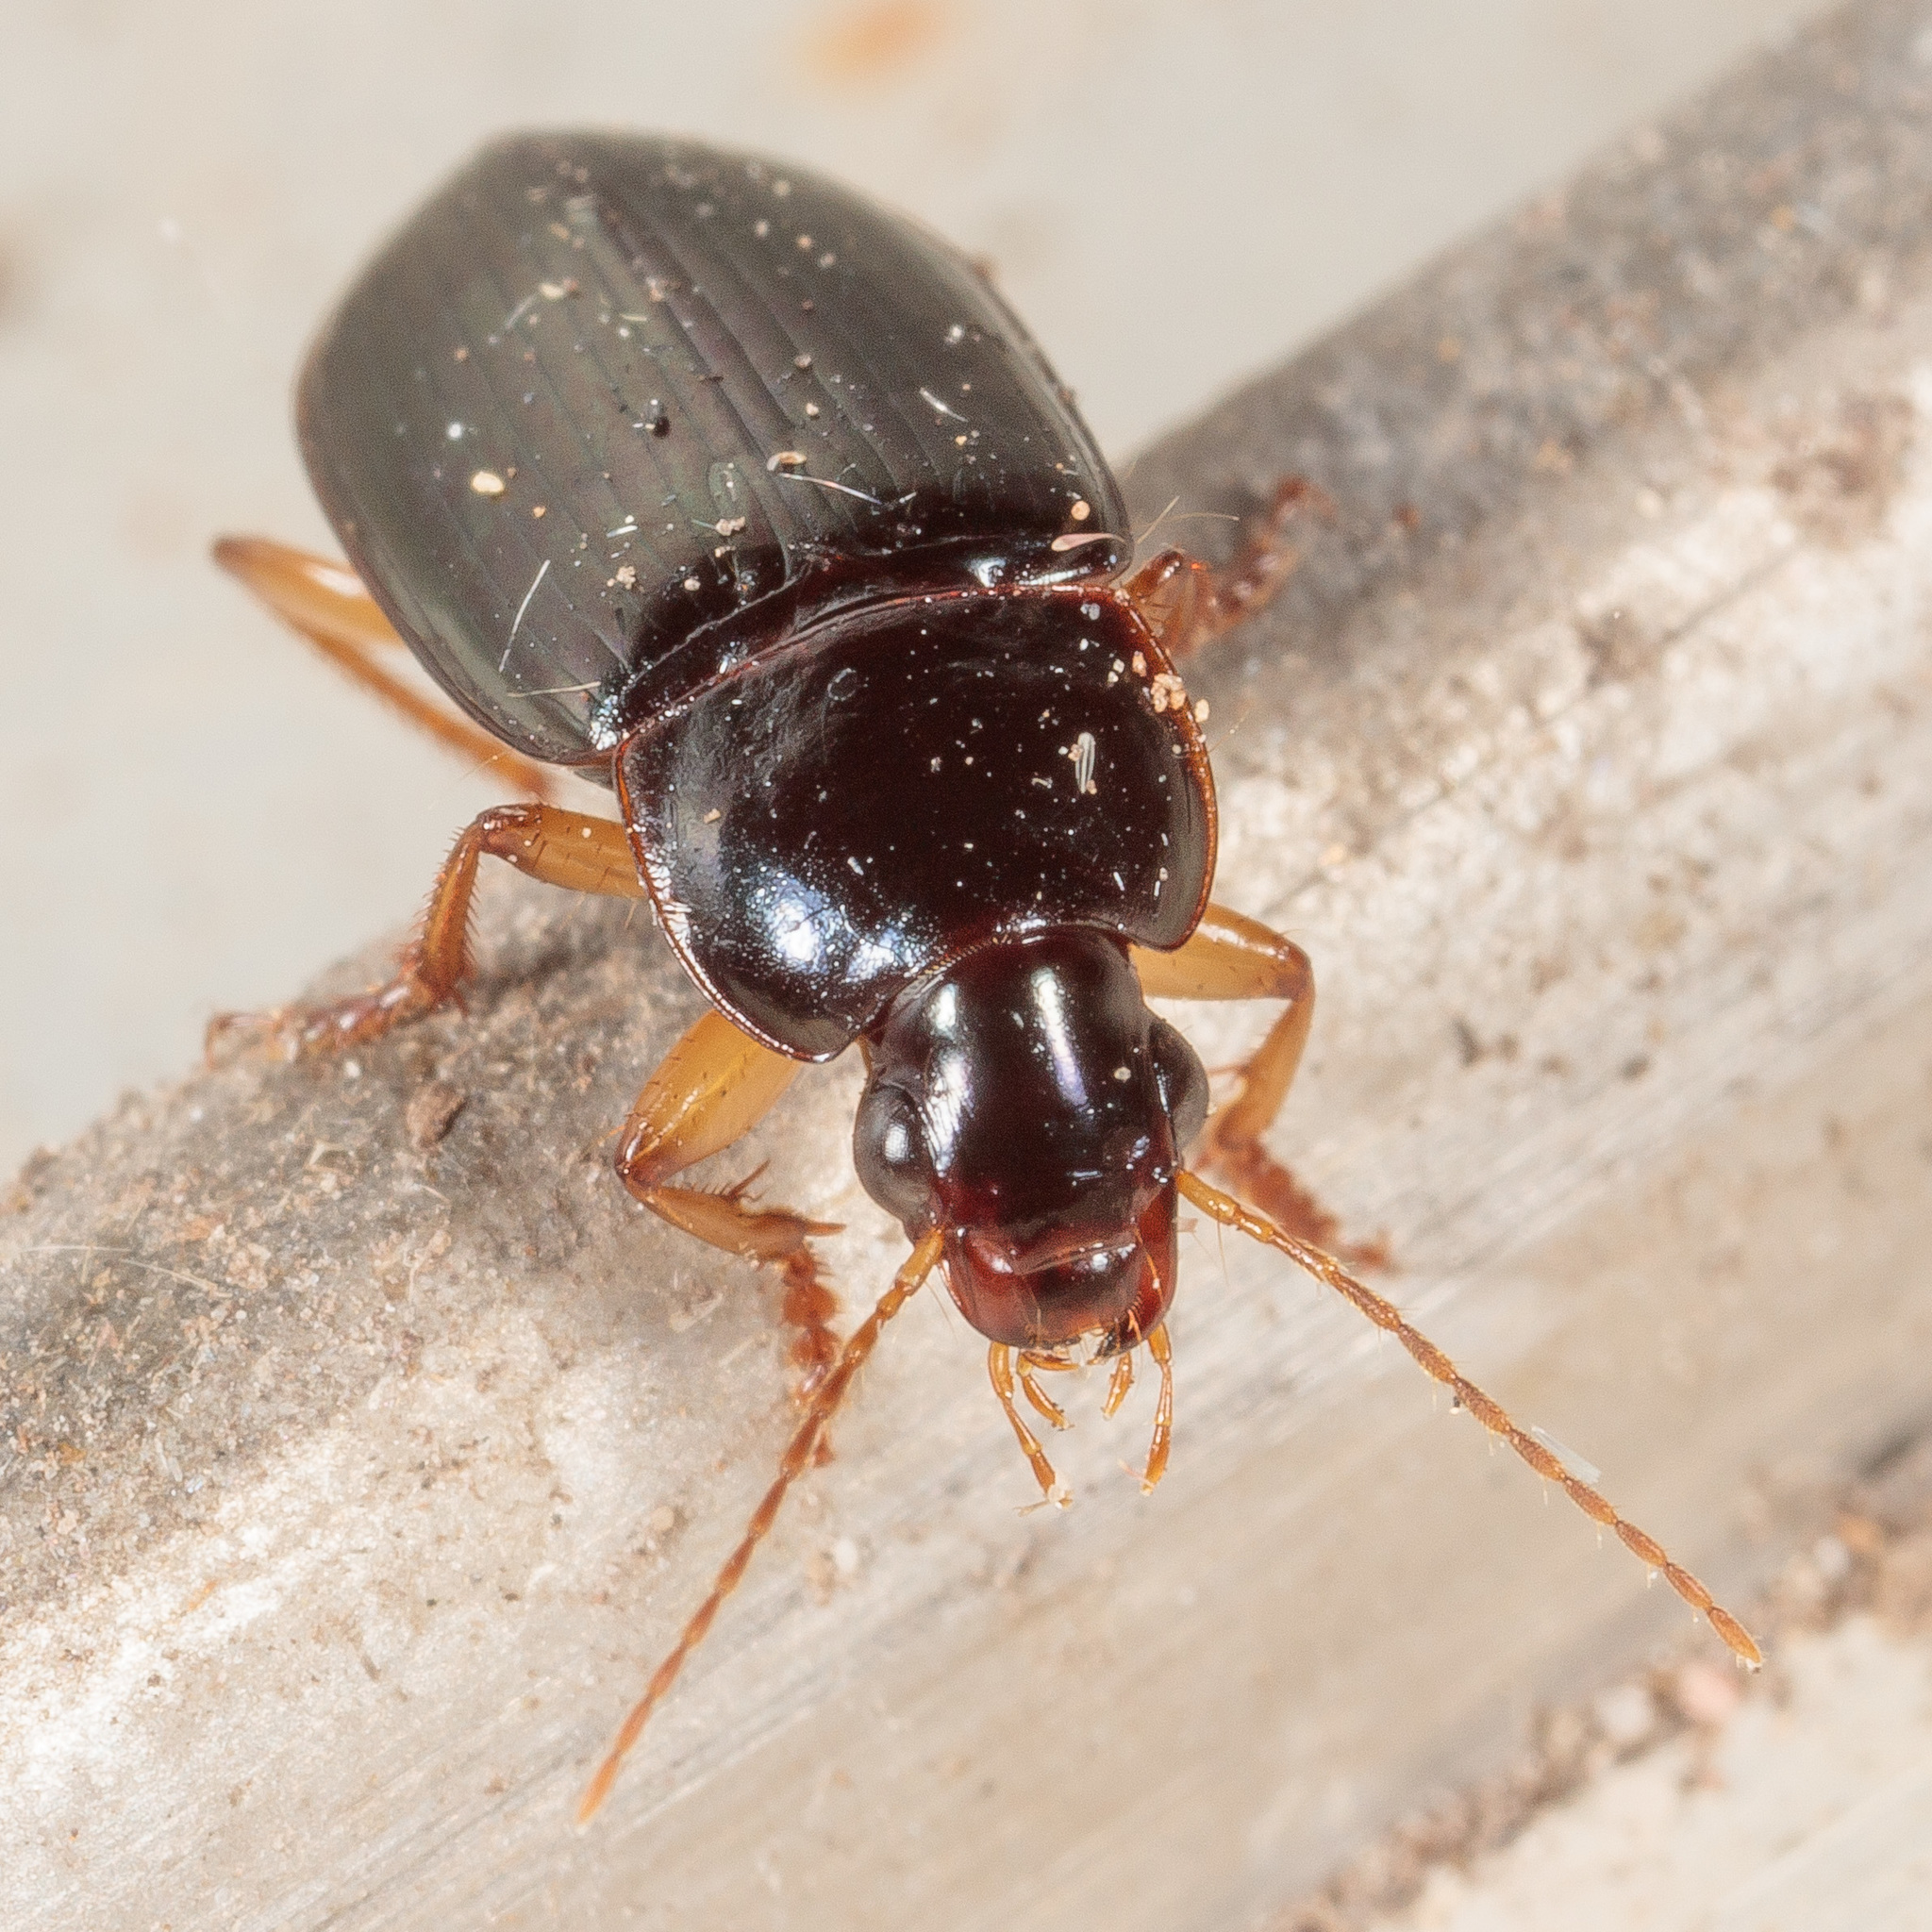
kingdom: Animalia
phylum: Arthropoda
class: Insecta
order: Coleoptera
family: Carabidae
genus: Notiobia
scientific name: Notiobia terminata
